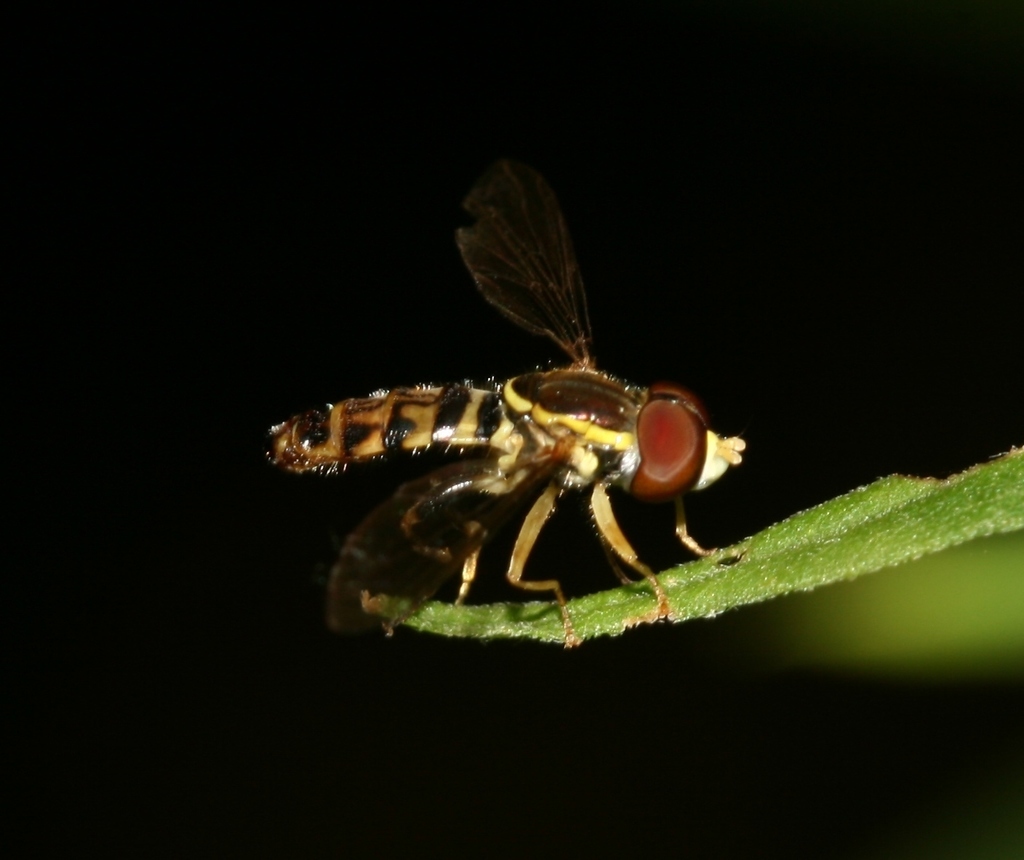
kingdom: Animalia
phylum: Arthropoda
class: Insecta
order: Diptera
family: Syrphidae
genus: Toxomerus
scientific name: Toxomerus geminatus
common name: Eastern calligrapher
